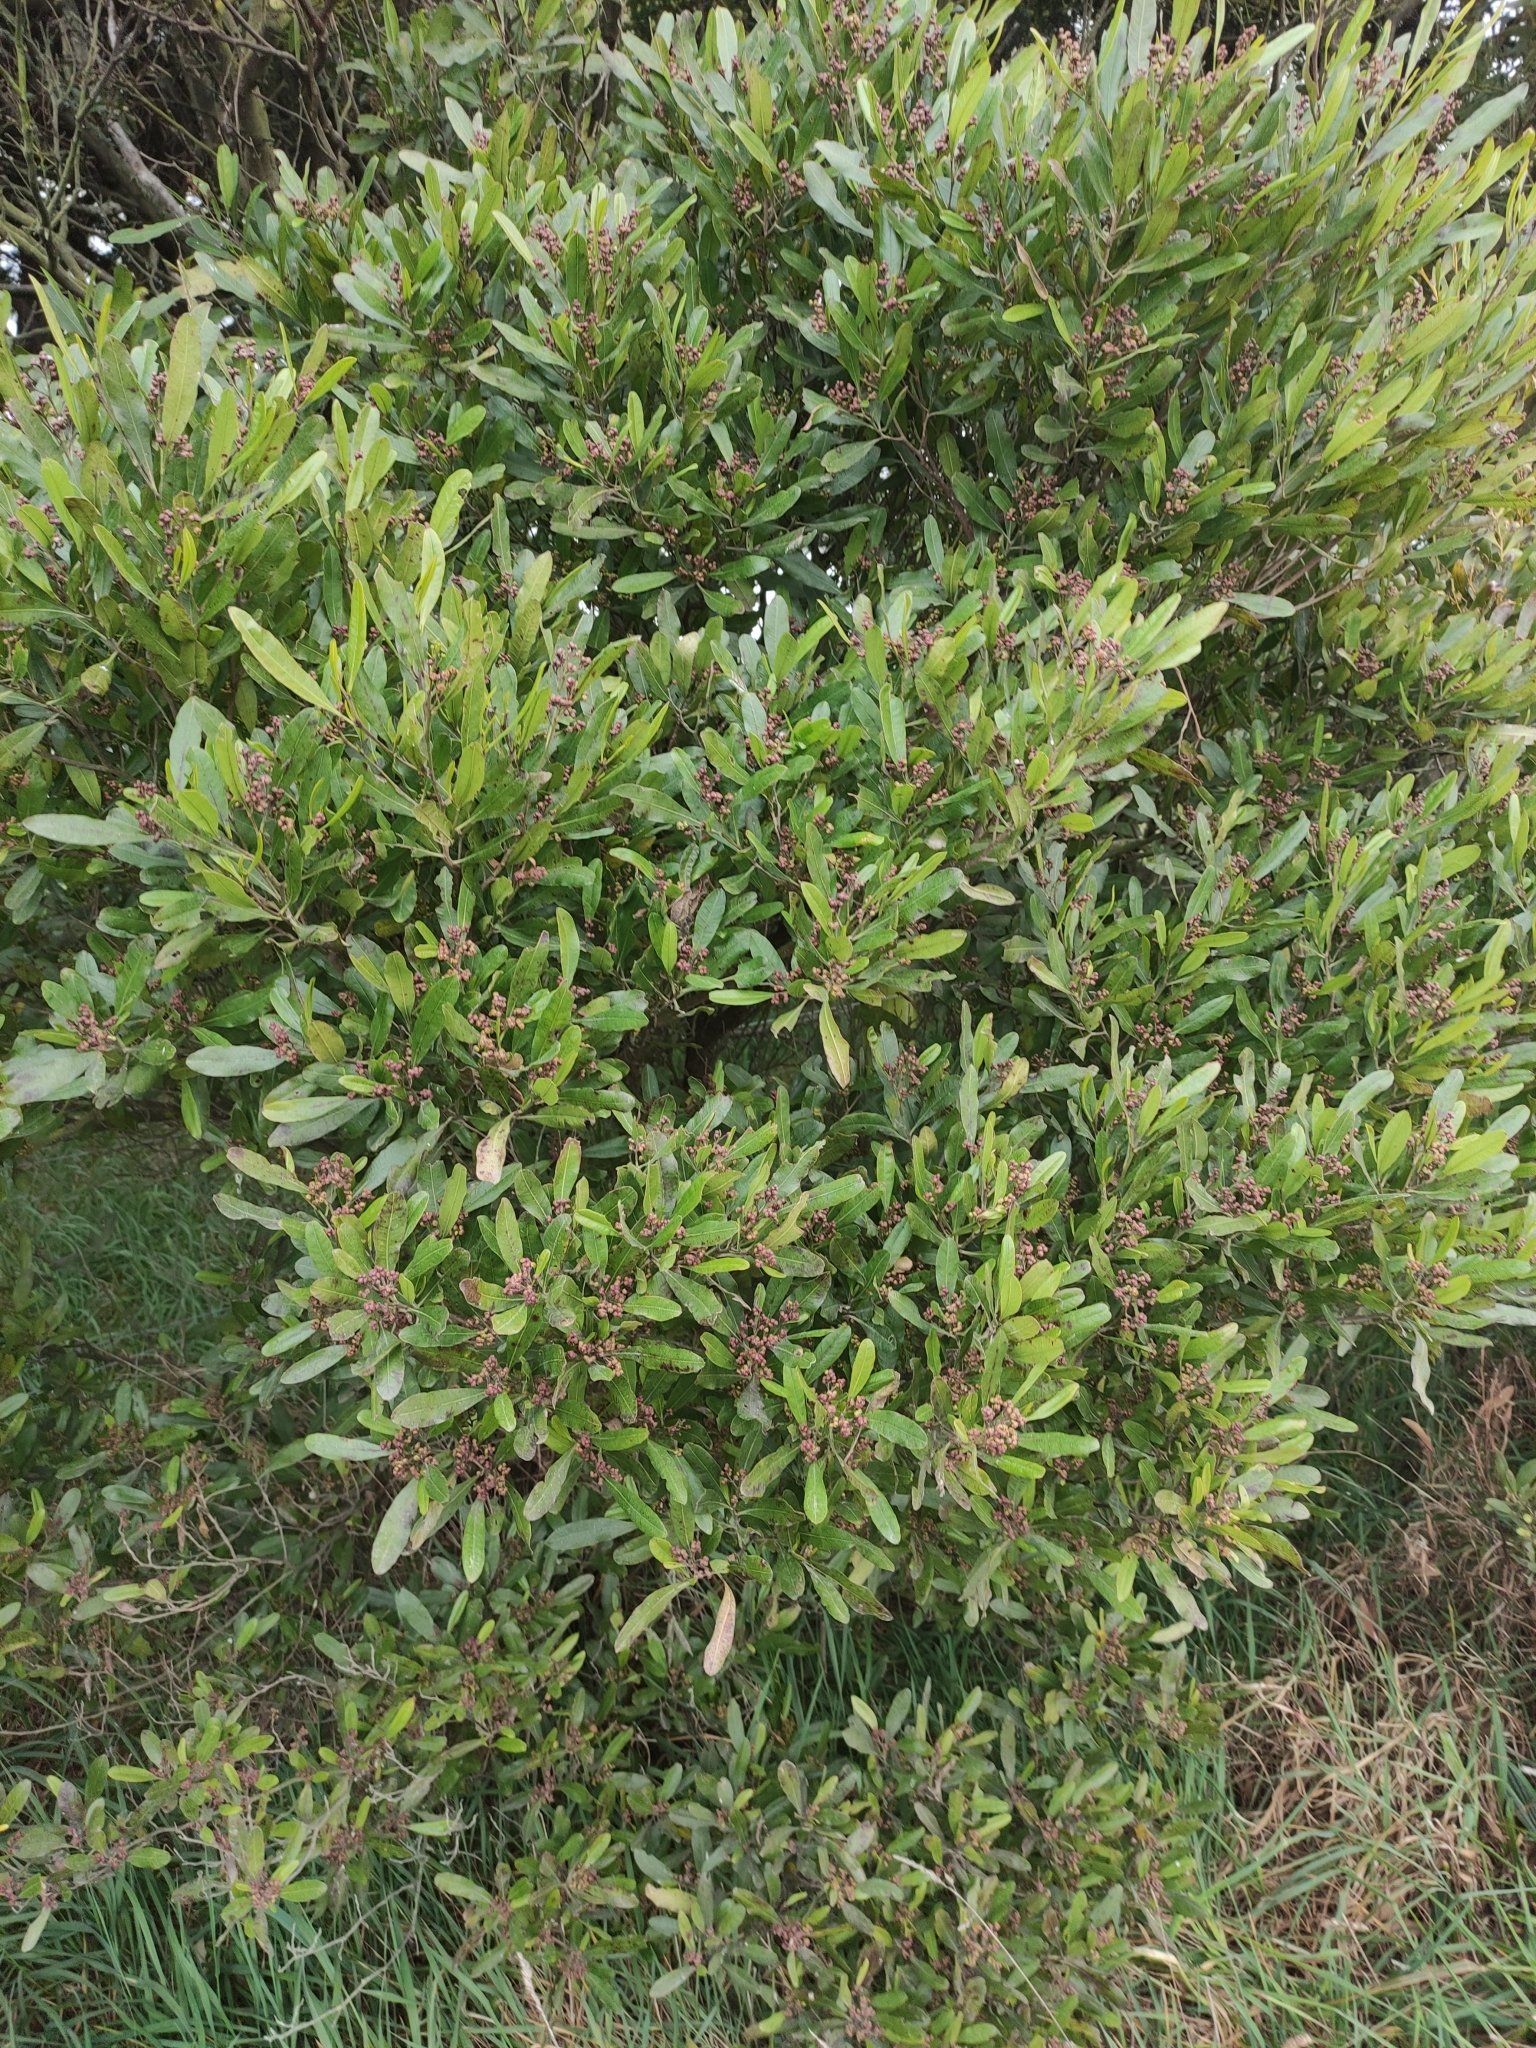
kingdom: Plantae
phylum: Tracheophyta
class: Magnoliopsida
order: Sapindales
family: Sapindaceae
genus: Dodonaea
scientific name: Dodonaea viscosa
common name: Hopbush
